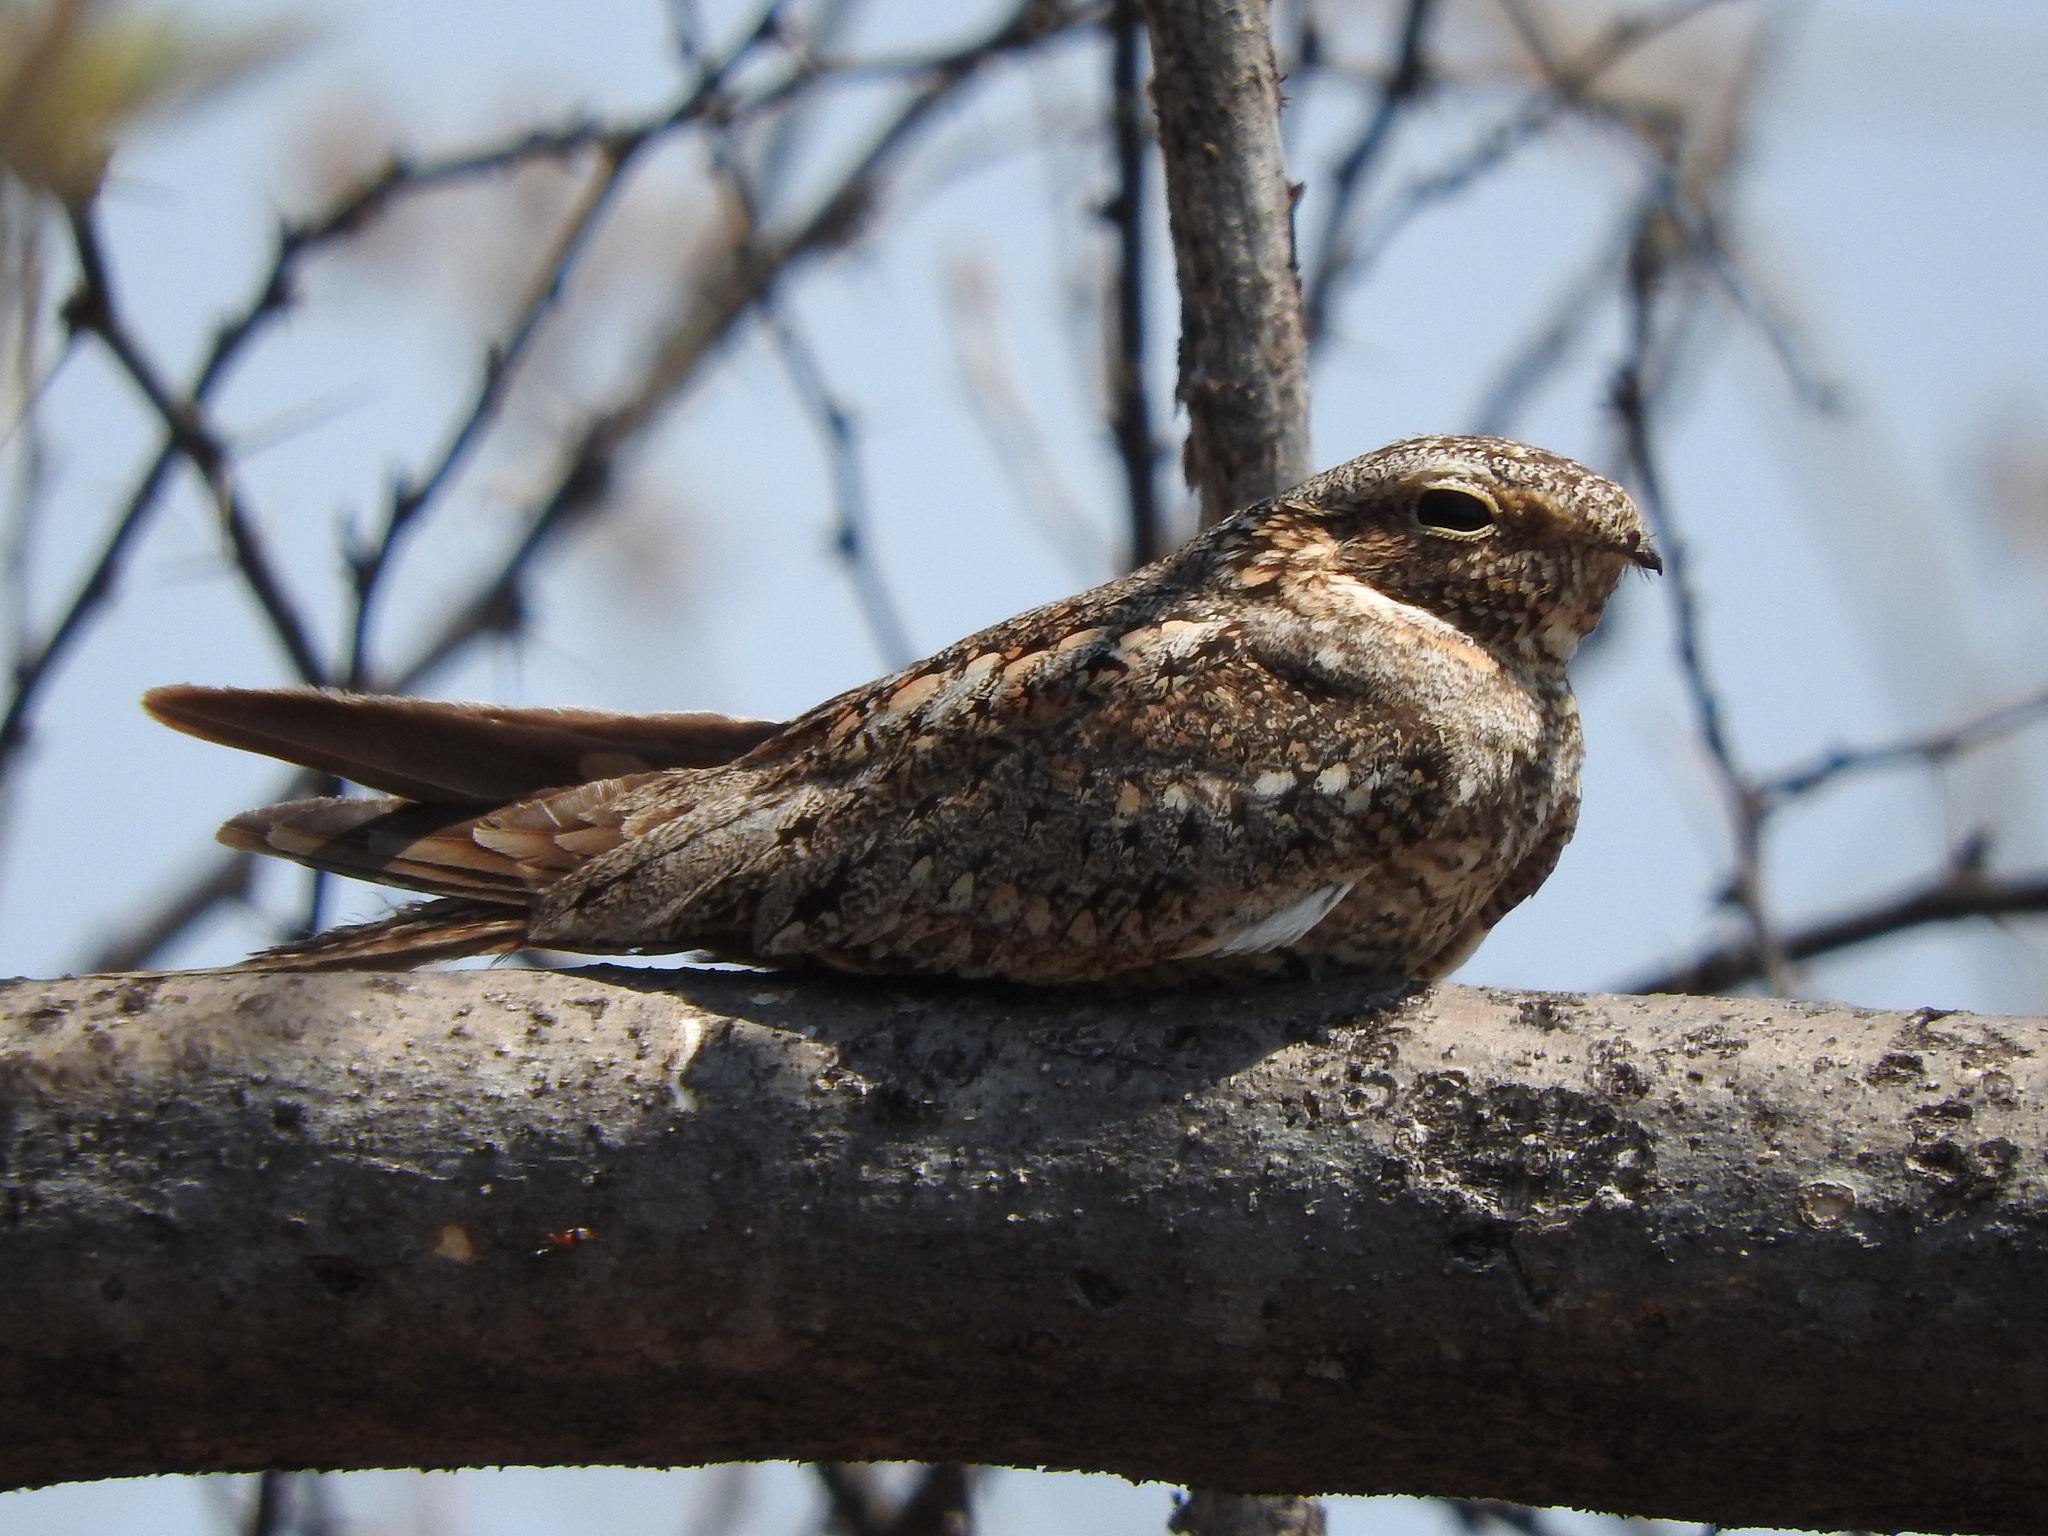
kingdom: Animalia
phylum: Chordata
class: Aves
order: Caprimulgiformes
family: Caprimulgidae
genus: Chordeiles
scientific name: Chordeiles acutipennis
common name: Lesser nighthawk
